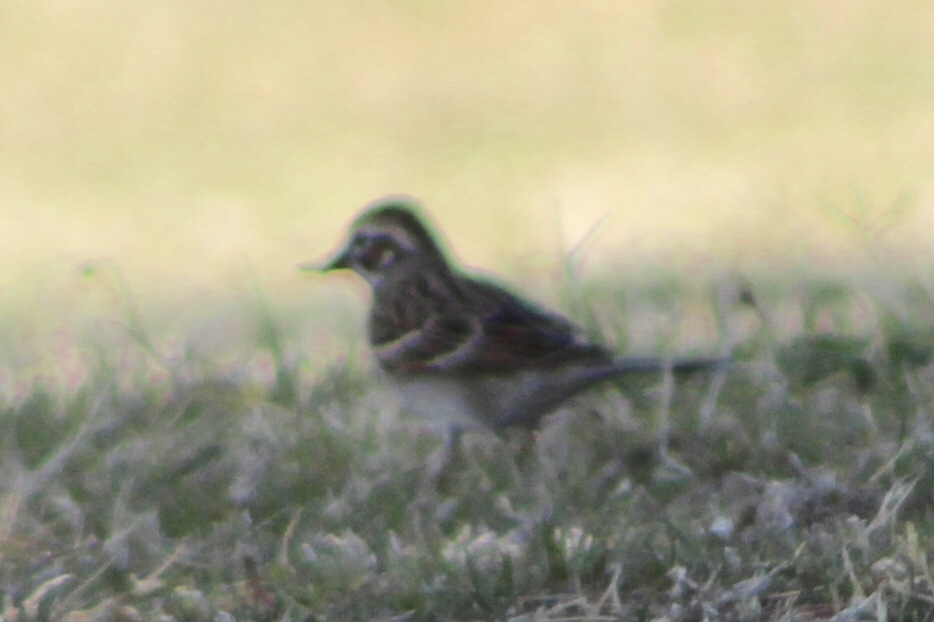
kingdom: Animalia
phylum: Chordata
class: Aves
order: Passeriformes
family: Passerellidae
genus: Chondestes
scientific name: Chondestes grammacus
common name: Lark sparrow
